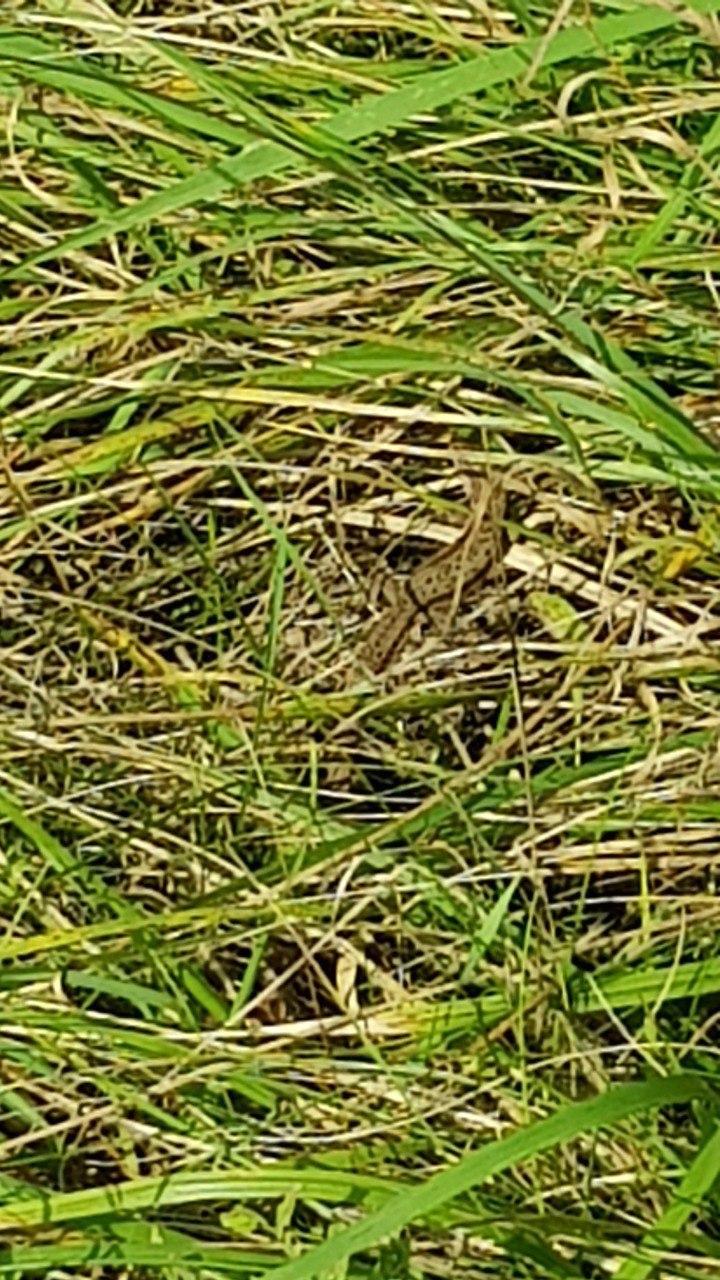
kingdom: Animalia
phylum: Chordata
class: Squamata
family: Lacertidae
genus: Zootoca
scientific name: Zootoca vivipara
